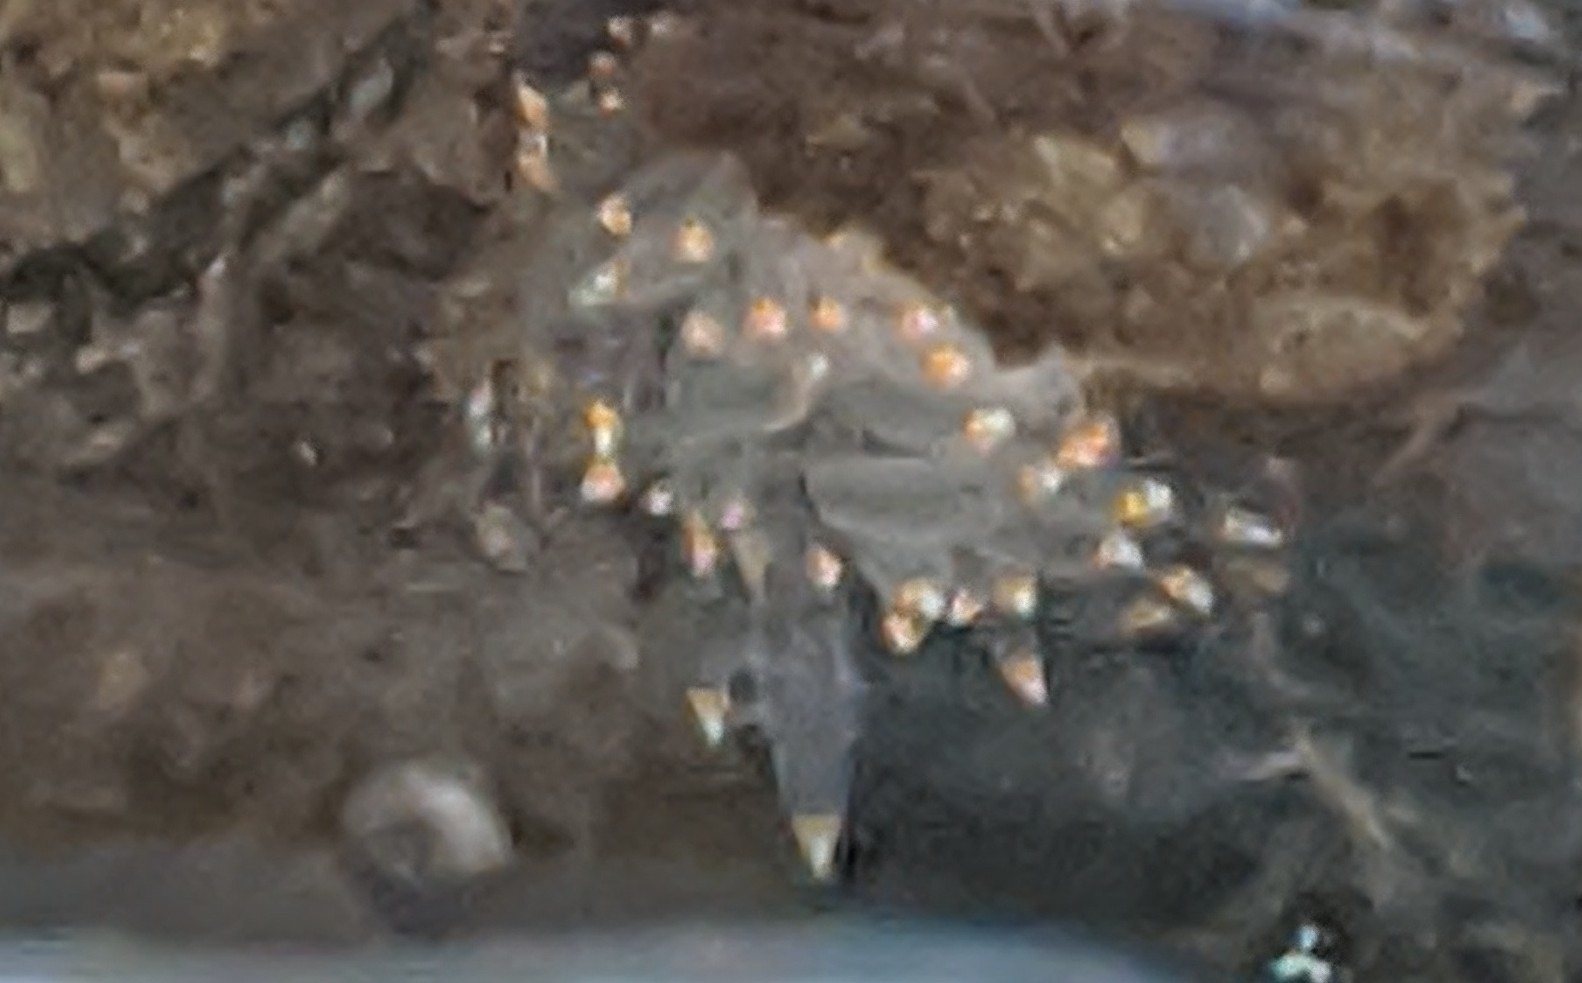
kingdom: Animalia
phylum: Mollusca
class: Gastropoda
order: Nudibranchia
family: Janolidae
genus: Antiopella
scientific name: Antiopella fusca
